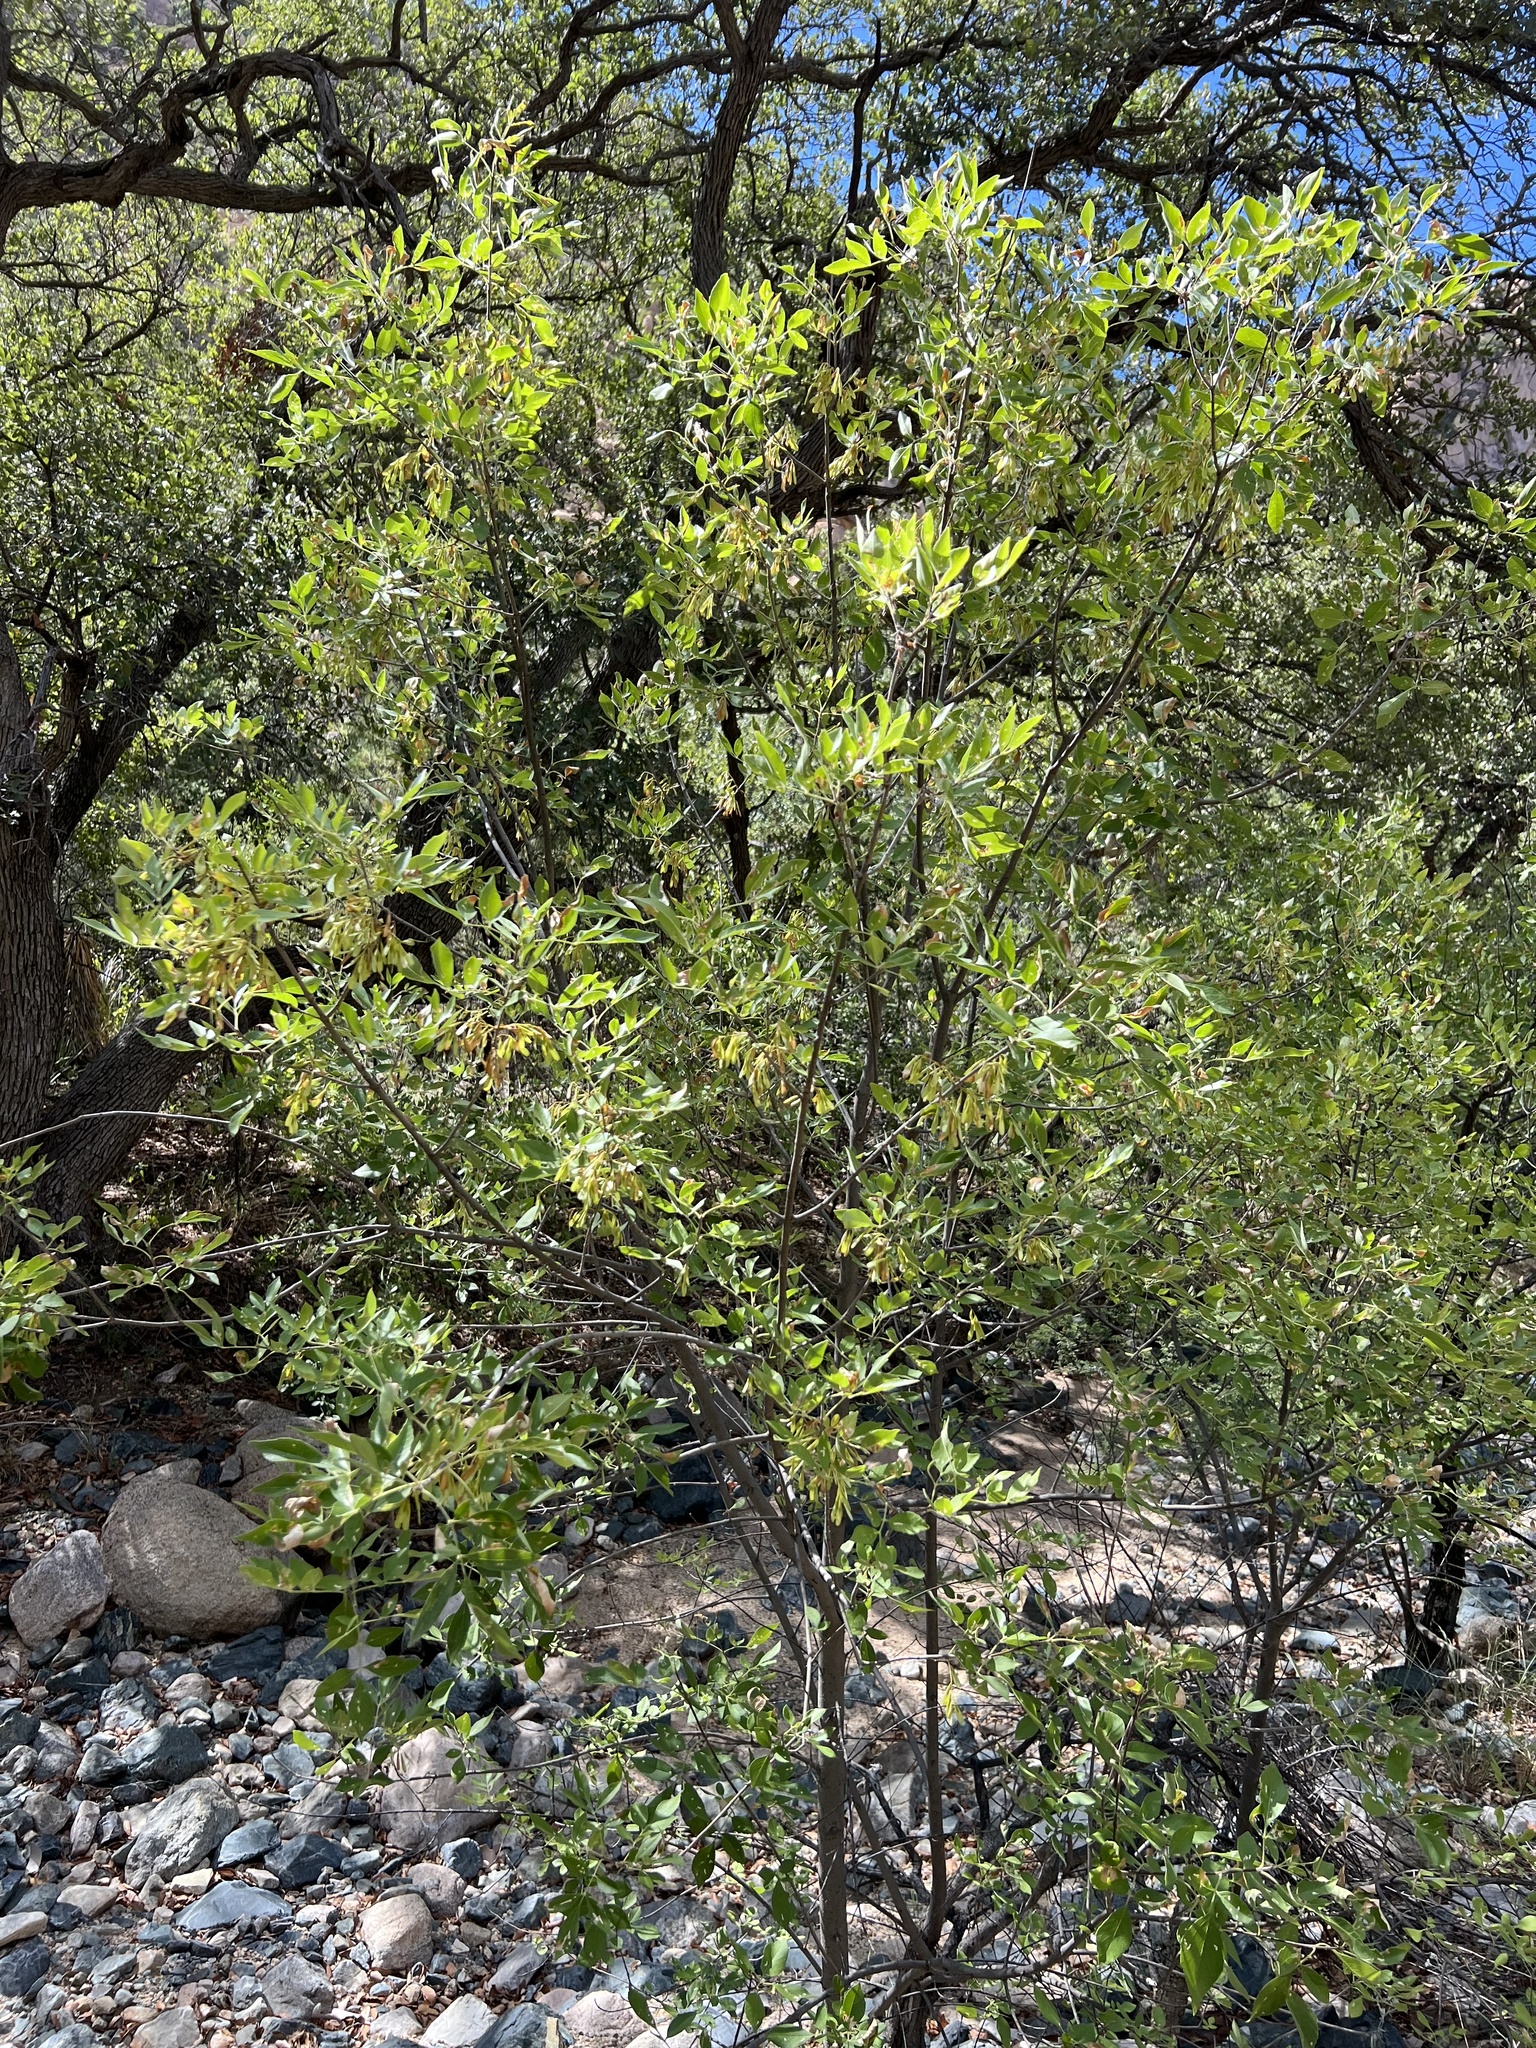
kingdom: Plantae
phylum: Tracheophyta
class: Magnoliopsida
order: Lamiales
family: Oleaceae
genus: Fraxinus
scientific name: Fraxinus velutina
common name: Arizon ash
